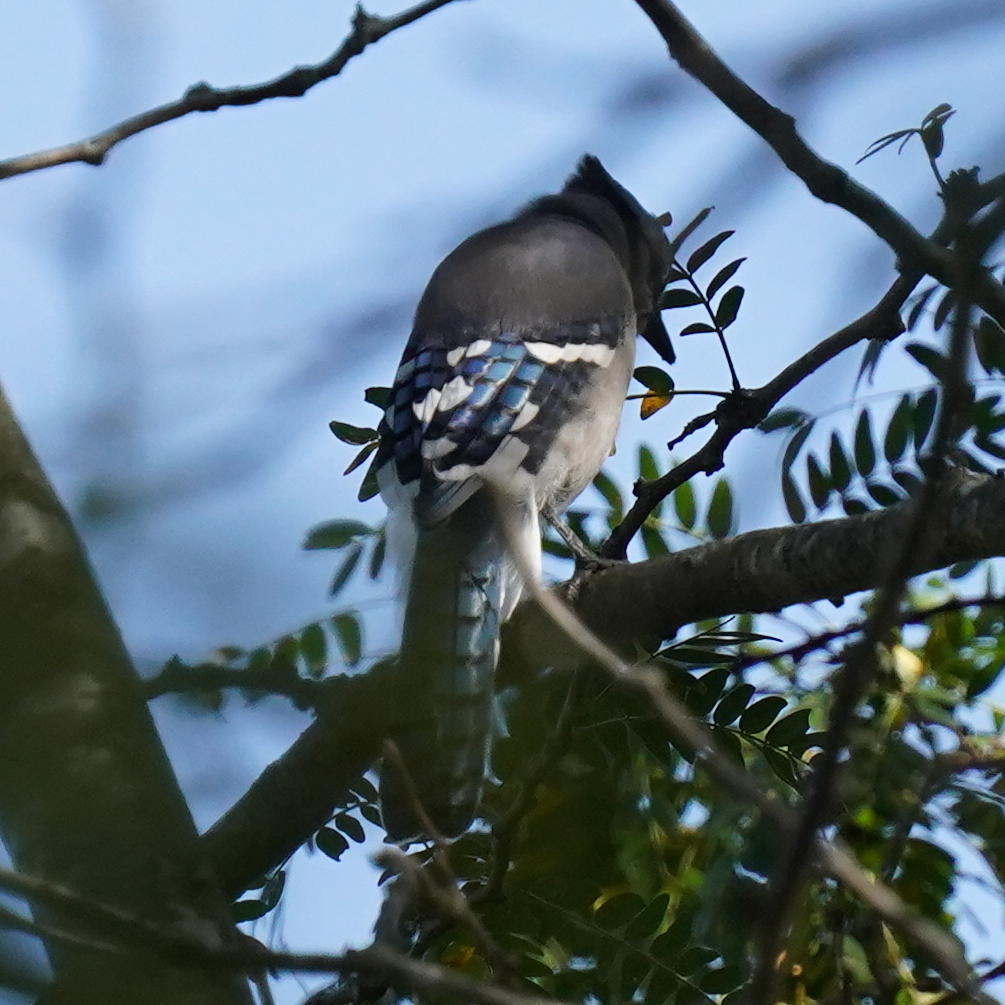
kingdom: Animalia
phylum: Chordata
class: Aves
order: Passeriformes
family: Corvidae
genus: Cyanocitta
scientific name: Cyanocitta cristata
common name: Blue jay
